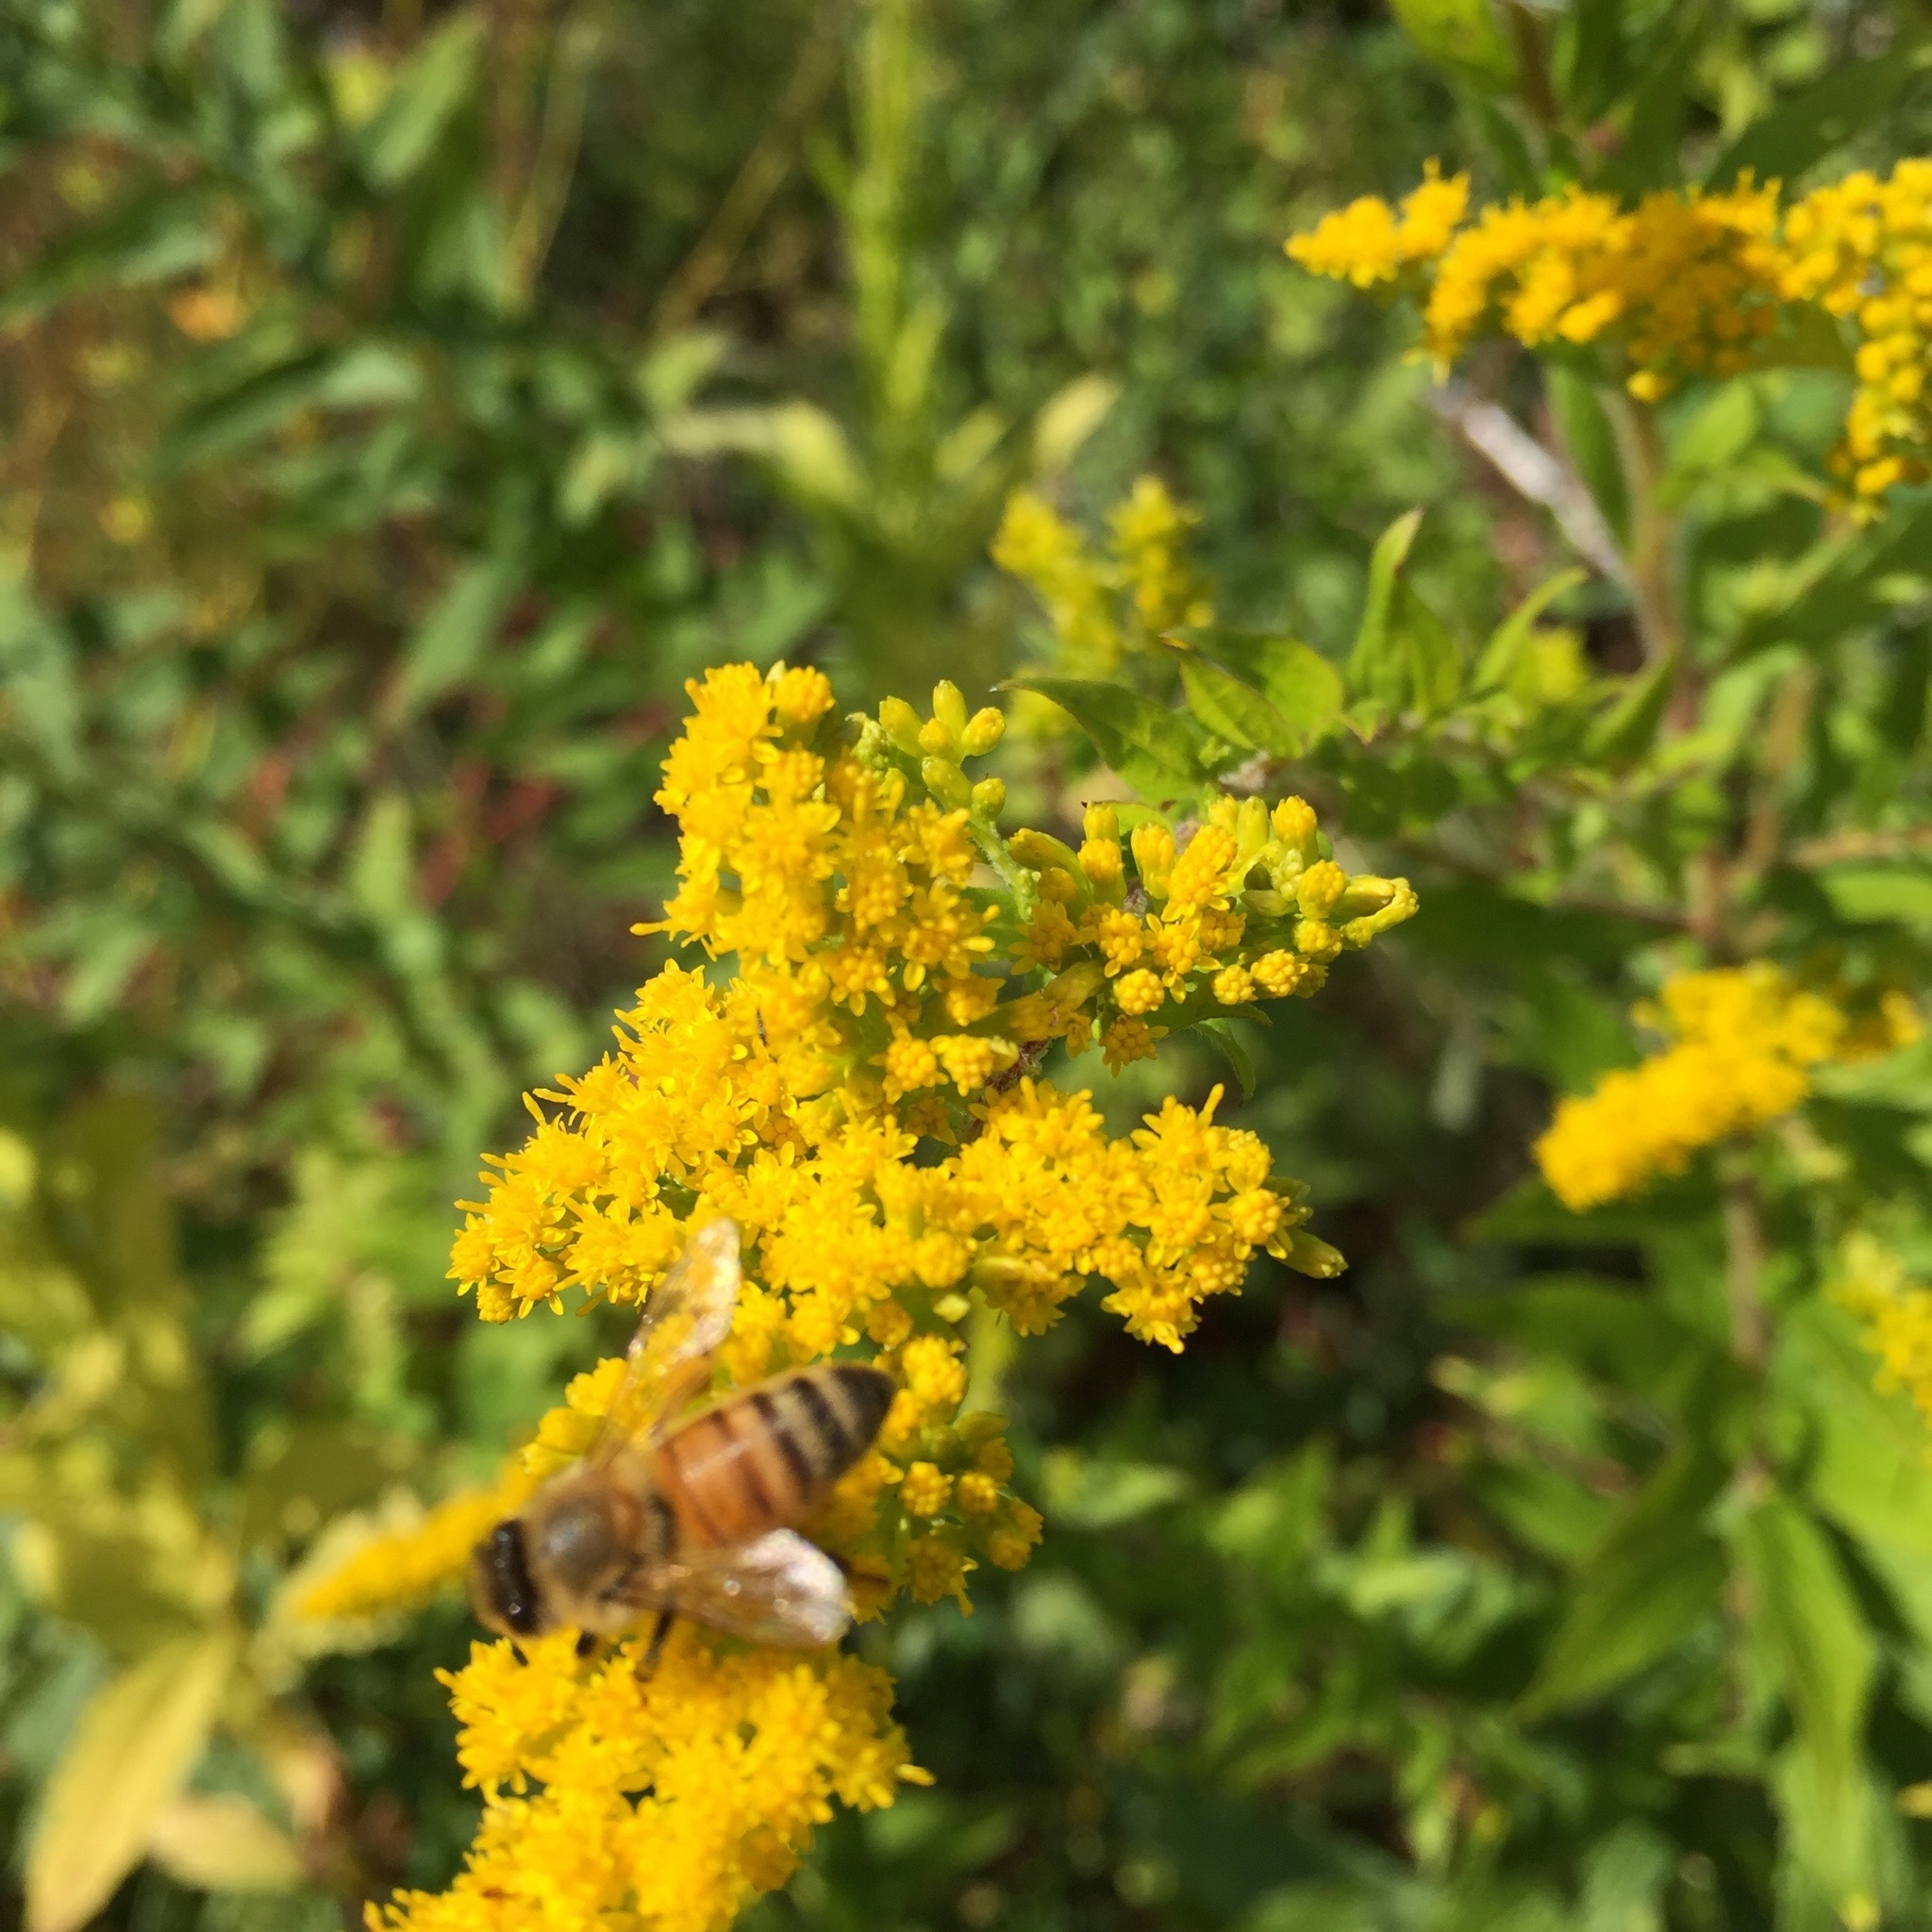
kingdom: Animalia
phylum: Arthropoda
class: Insecta
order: Hymenoptera
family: Apidae
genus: Apis
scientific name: Apis mellifera
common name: Honey bee
